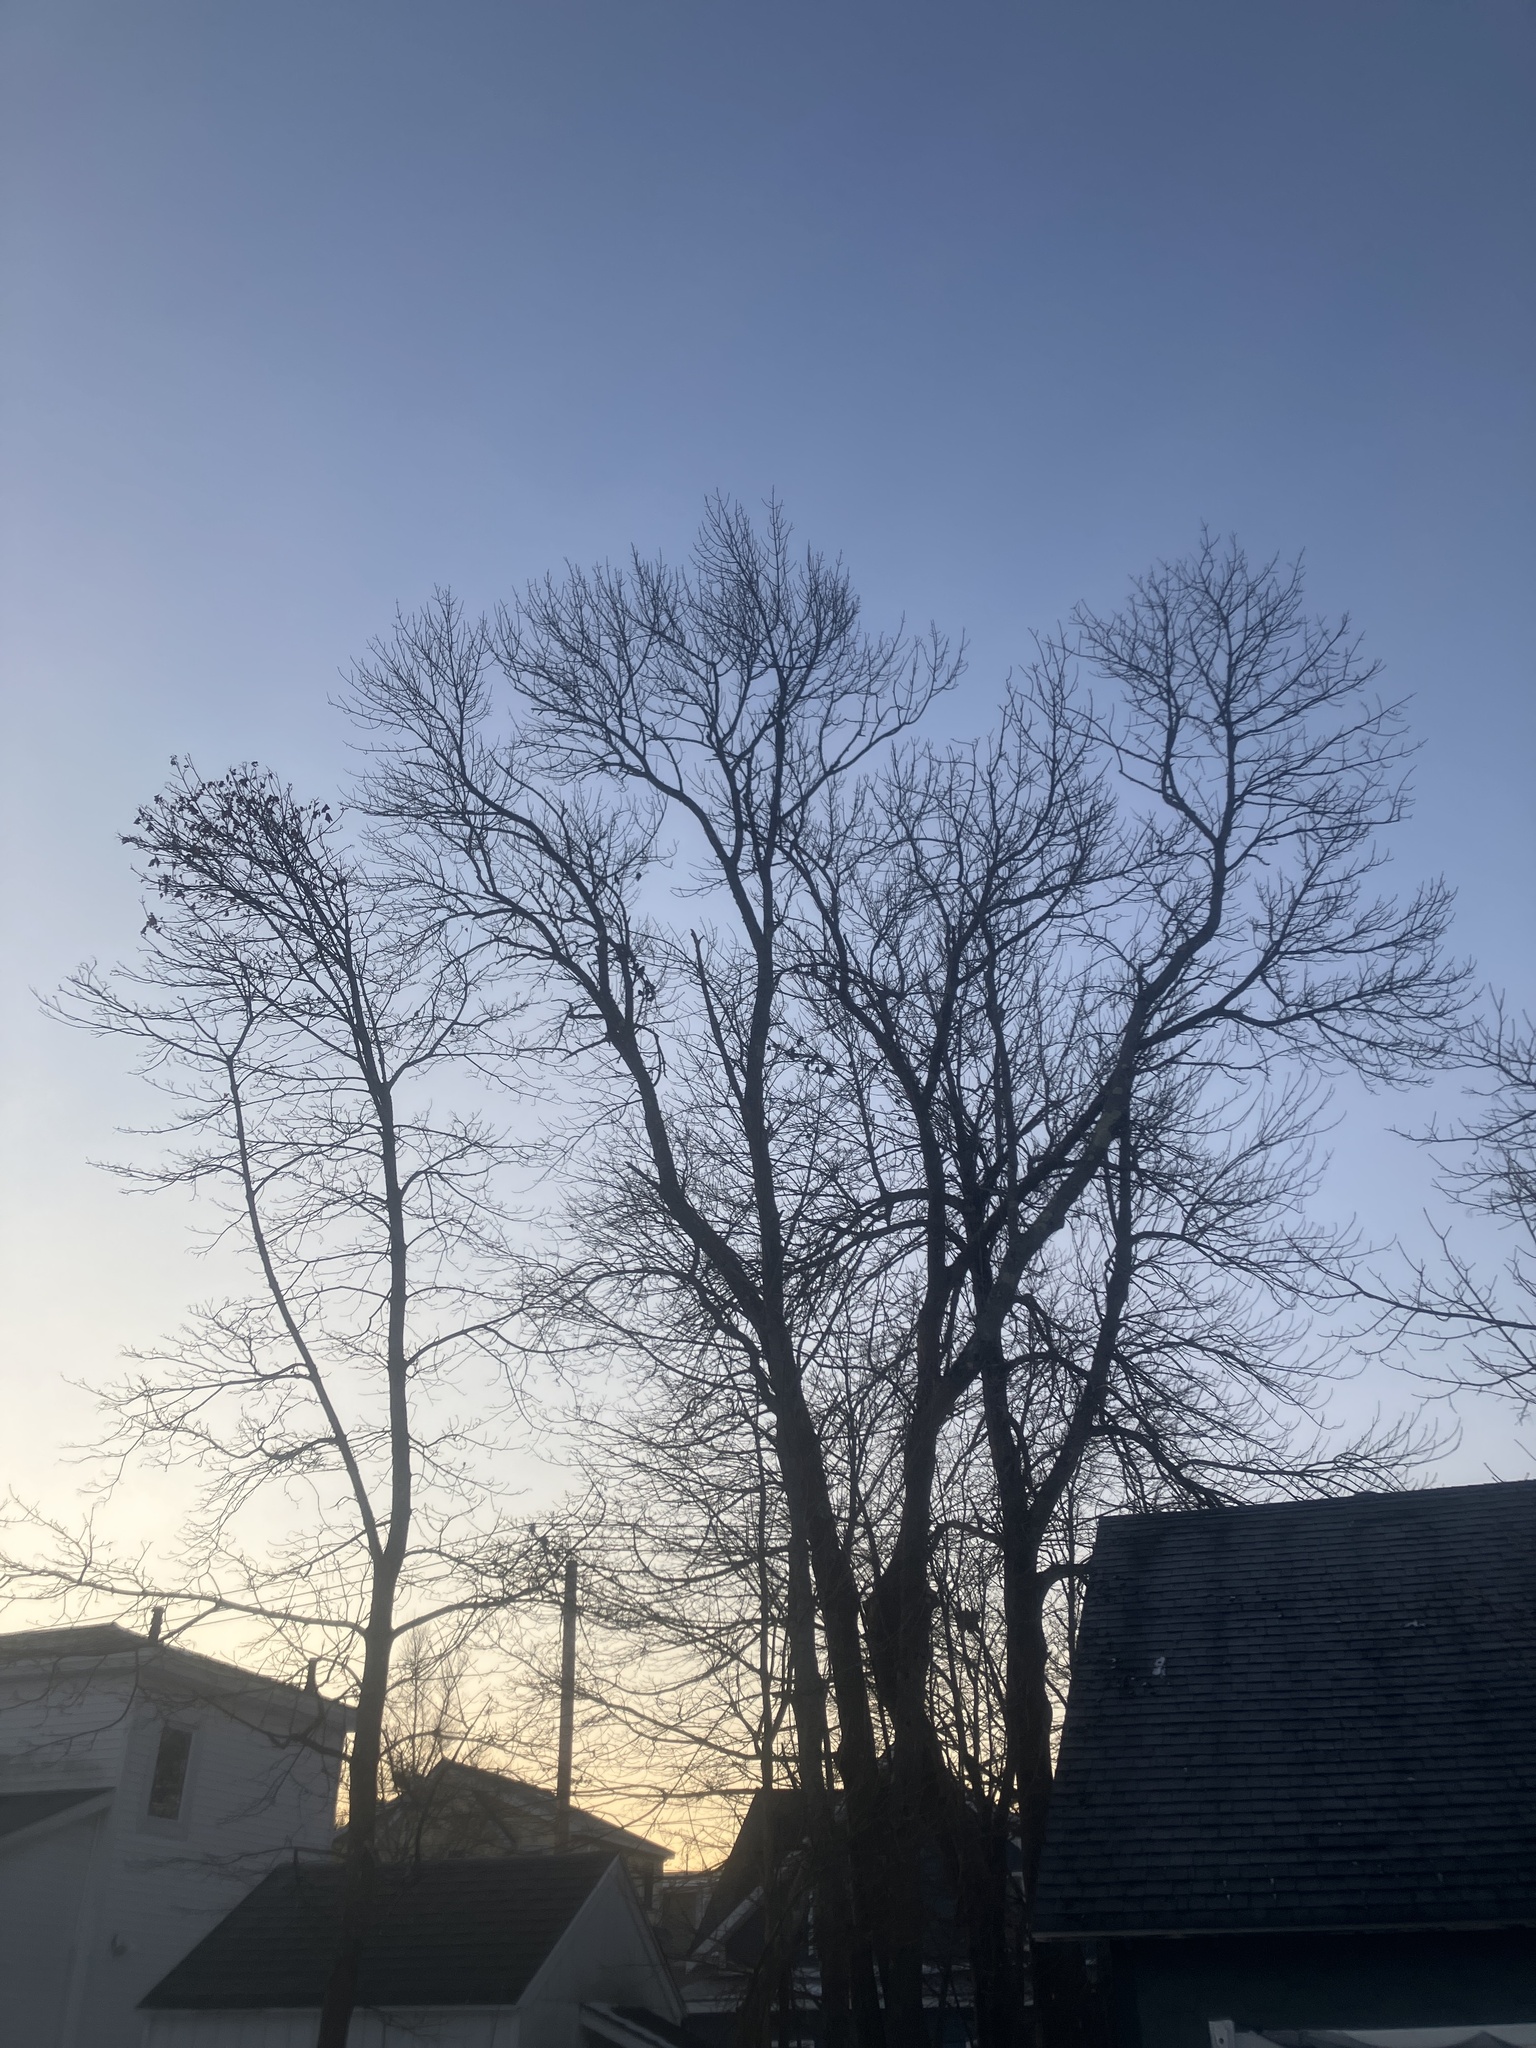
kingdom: Animalia
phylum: Chordata
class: Aves
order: Passeriformes
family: Sturnidae
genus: Sturnus
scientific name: Sturnus vulgaris
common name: Common starling
